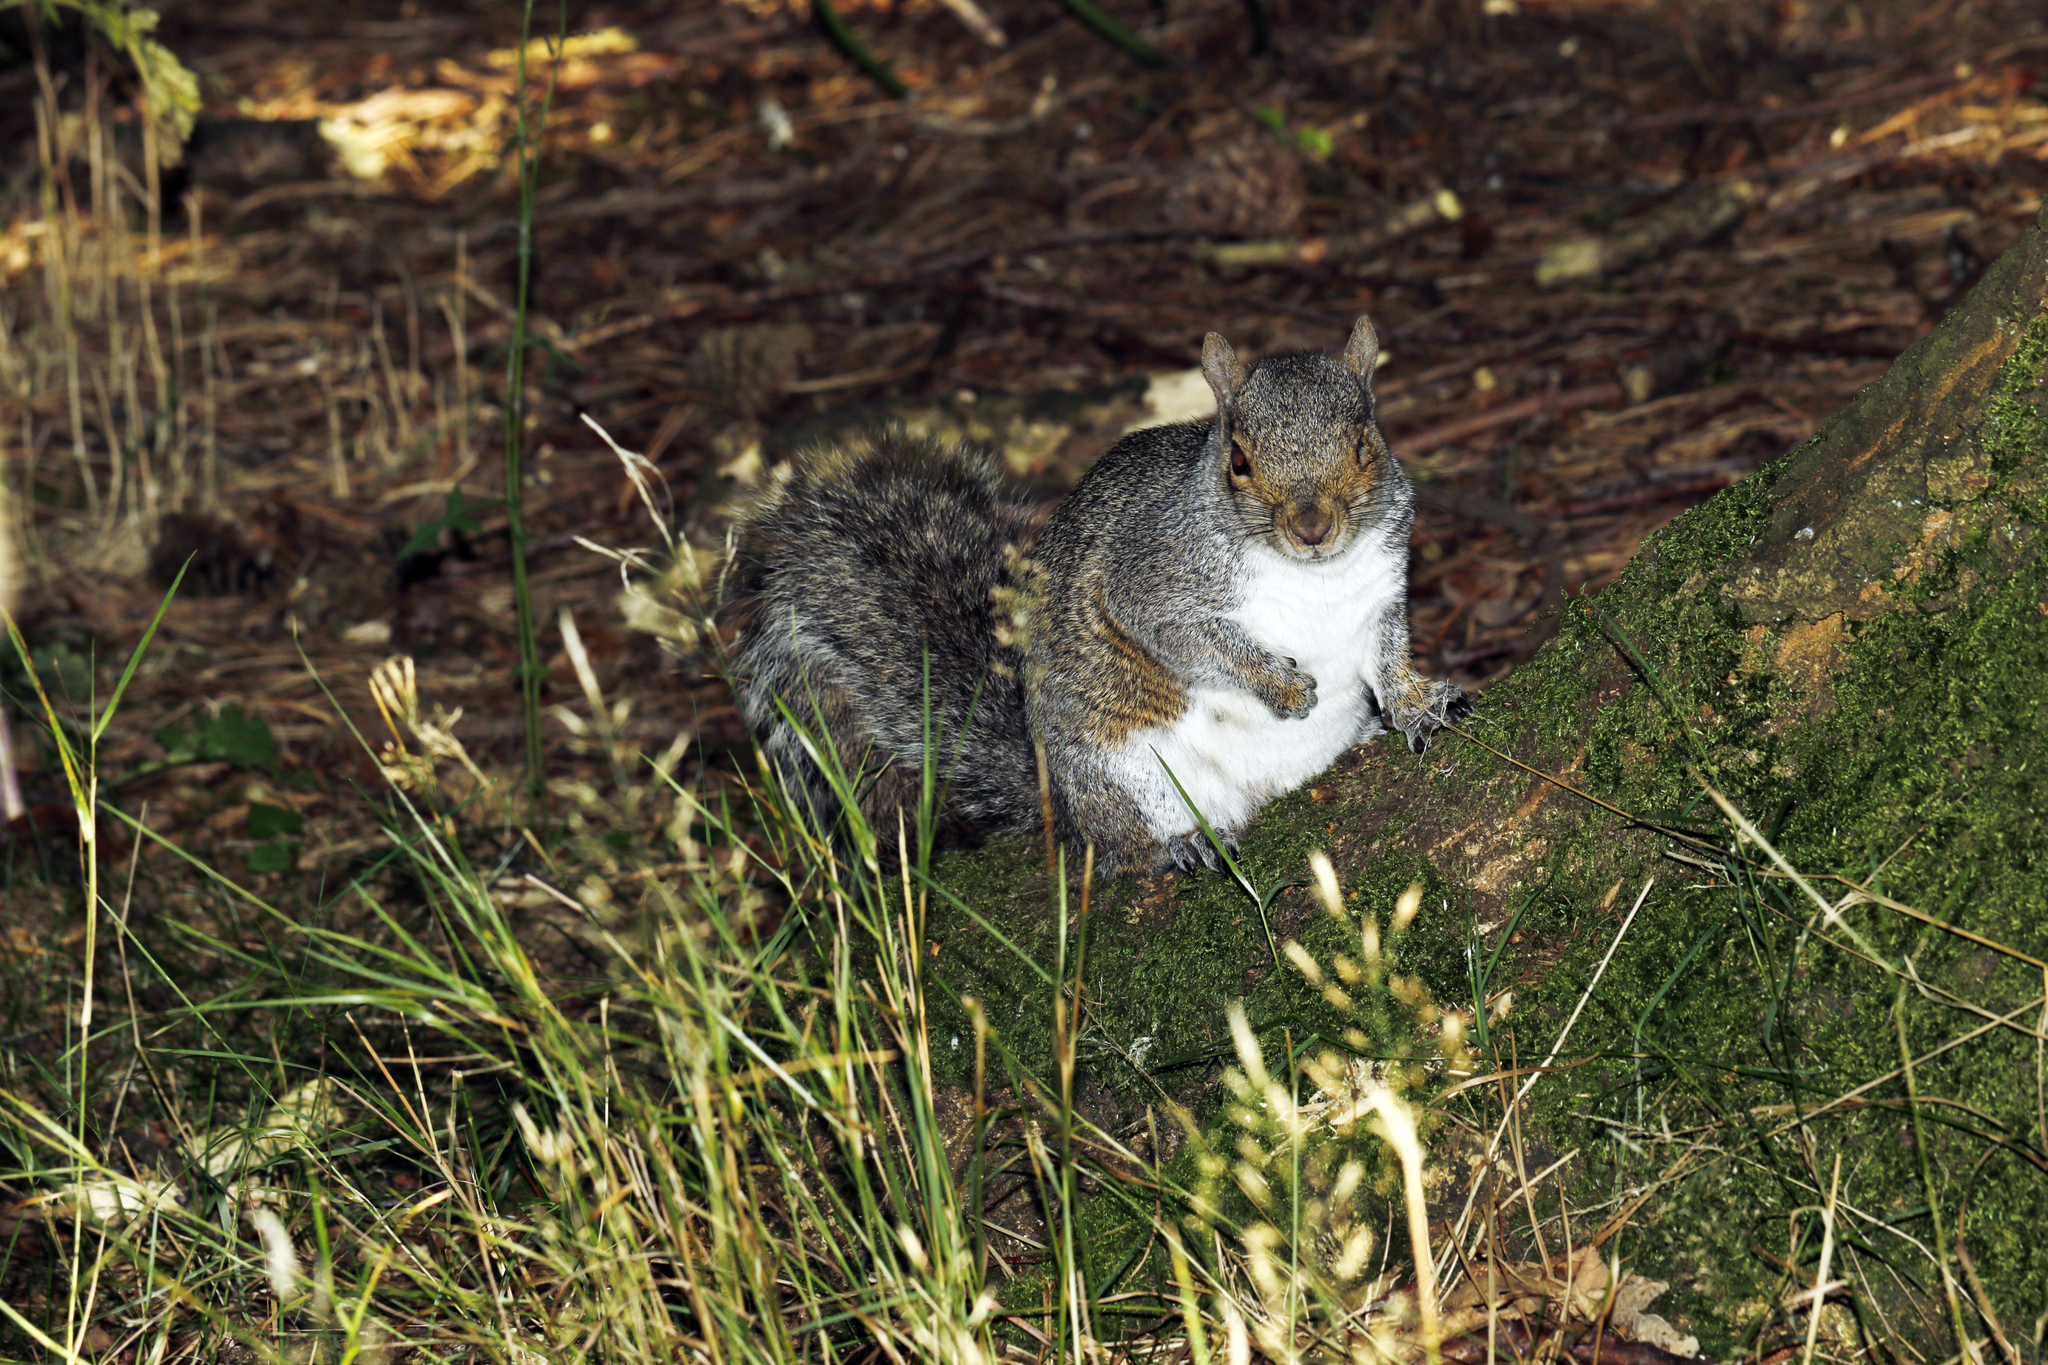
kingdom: Animalia
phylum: Chordata
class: Mammalia
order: Rodentia
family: Sciuridae
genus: Sciurus
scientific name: Sciurus carolinensis
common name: Eastern gray squirrel
